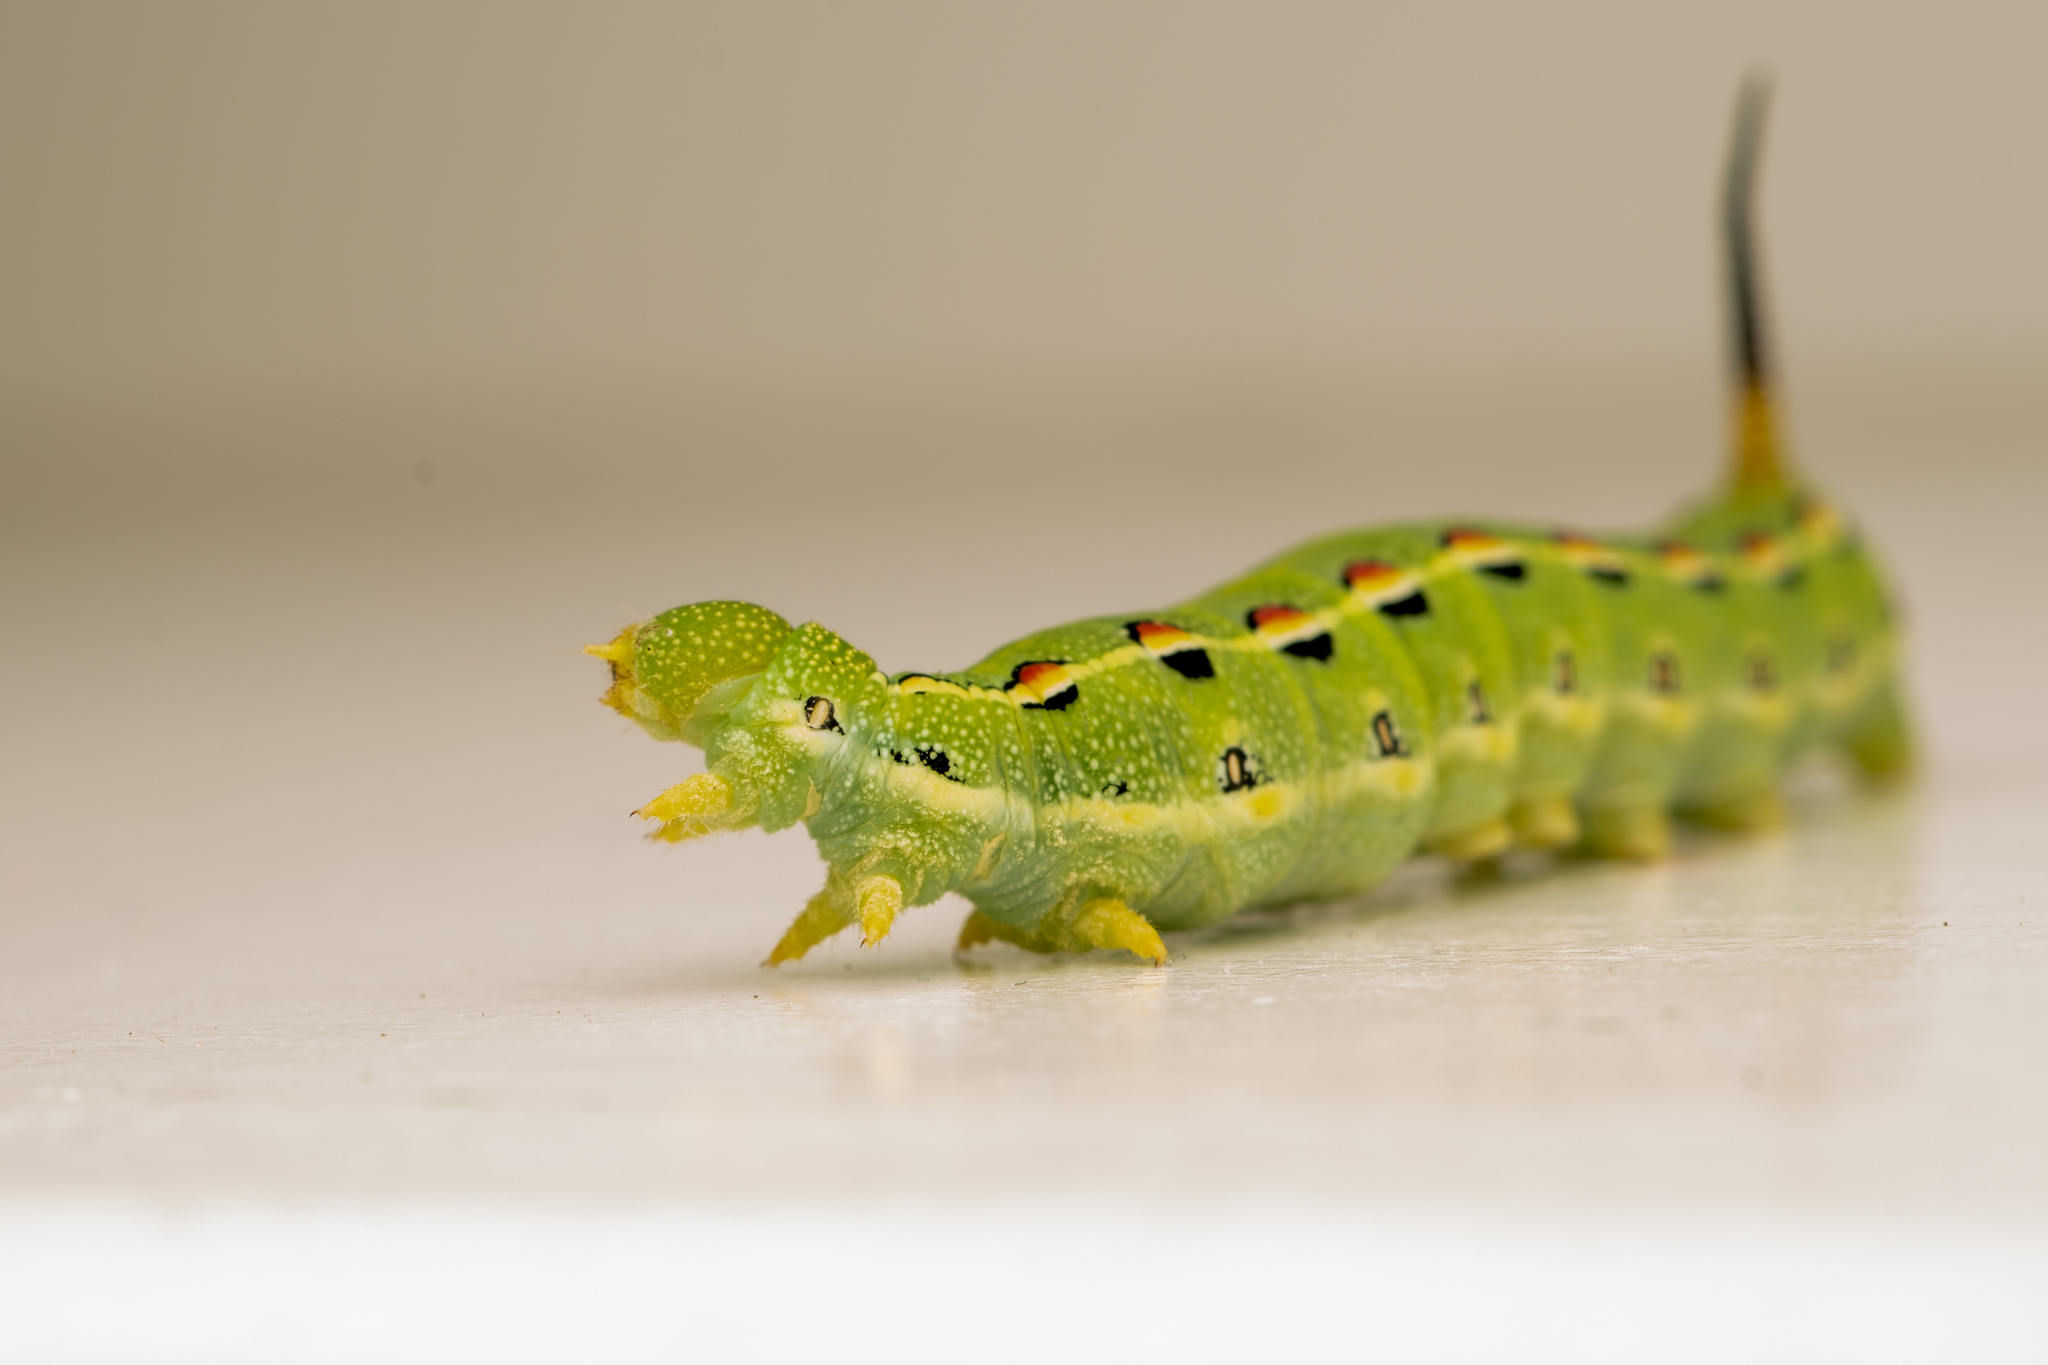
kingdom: Animalia
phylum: Arthropoda
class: Insecta
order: Lepidoptera
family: Sphingidae
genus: Hyles
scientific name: Hyles lineata
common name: White-lined sphinx
